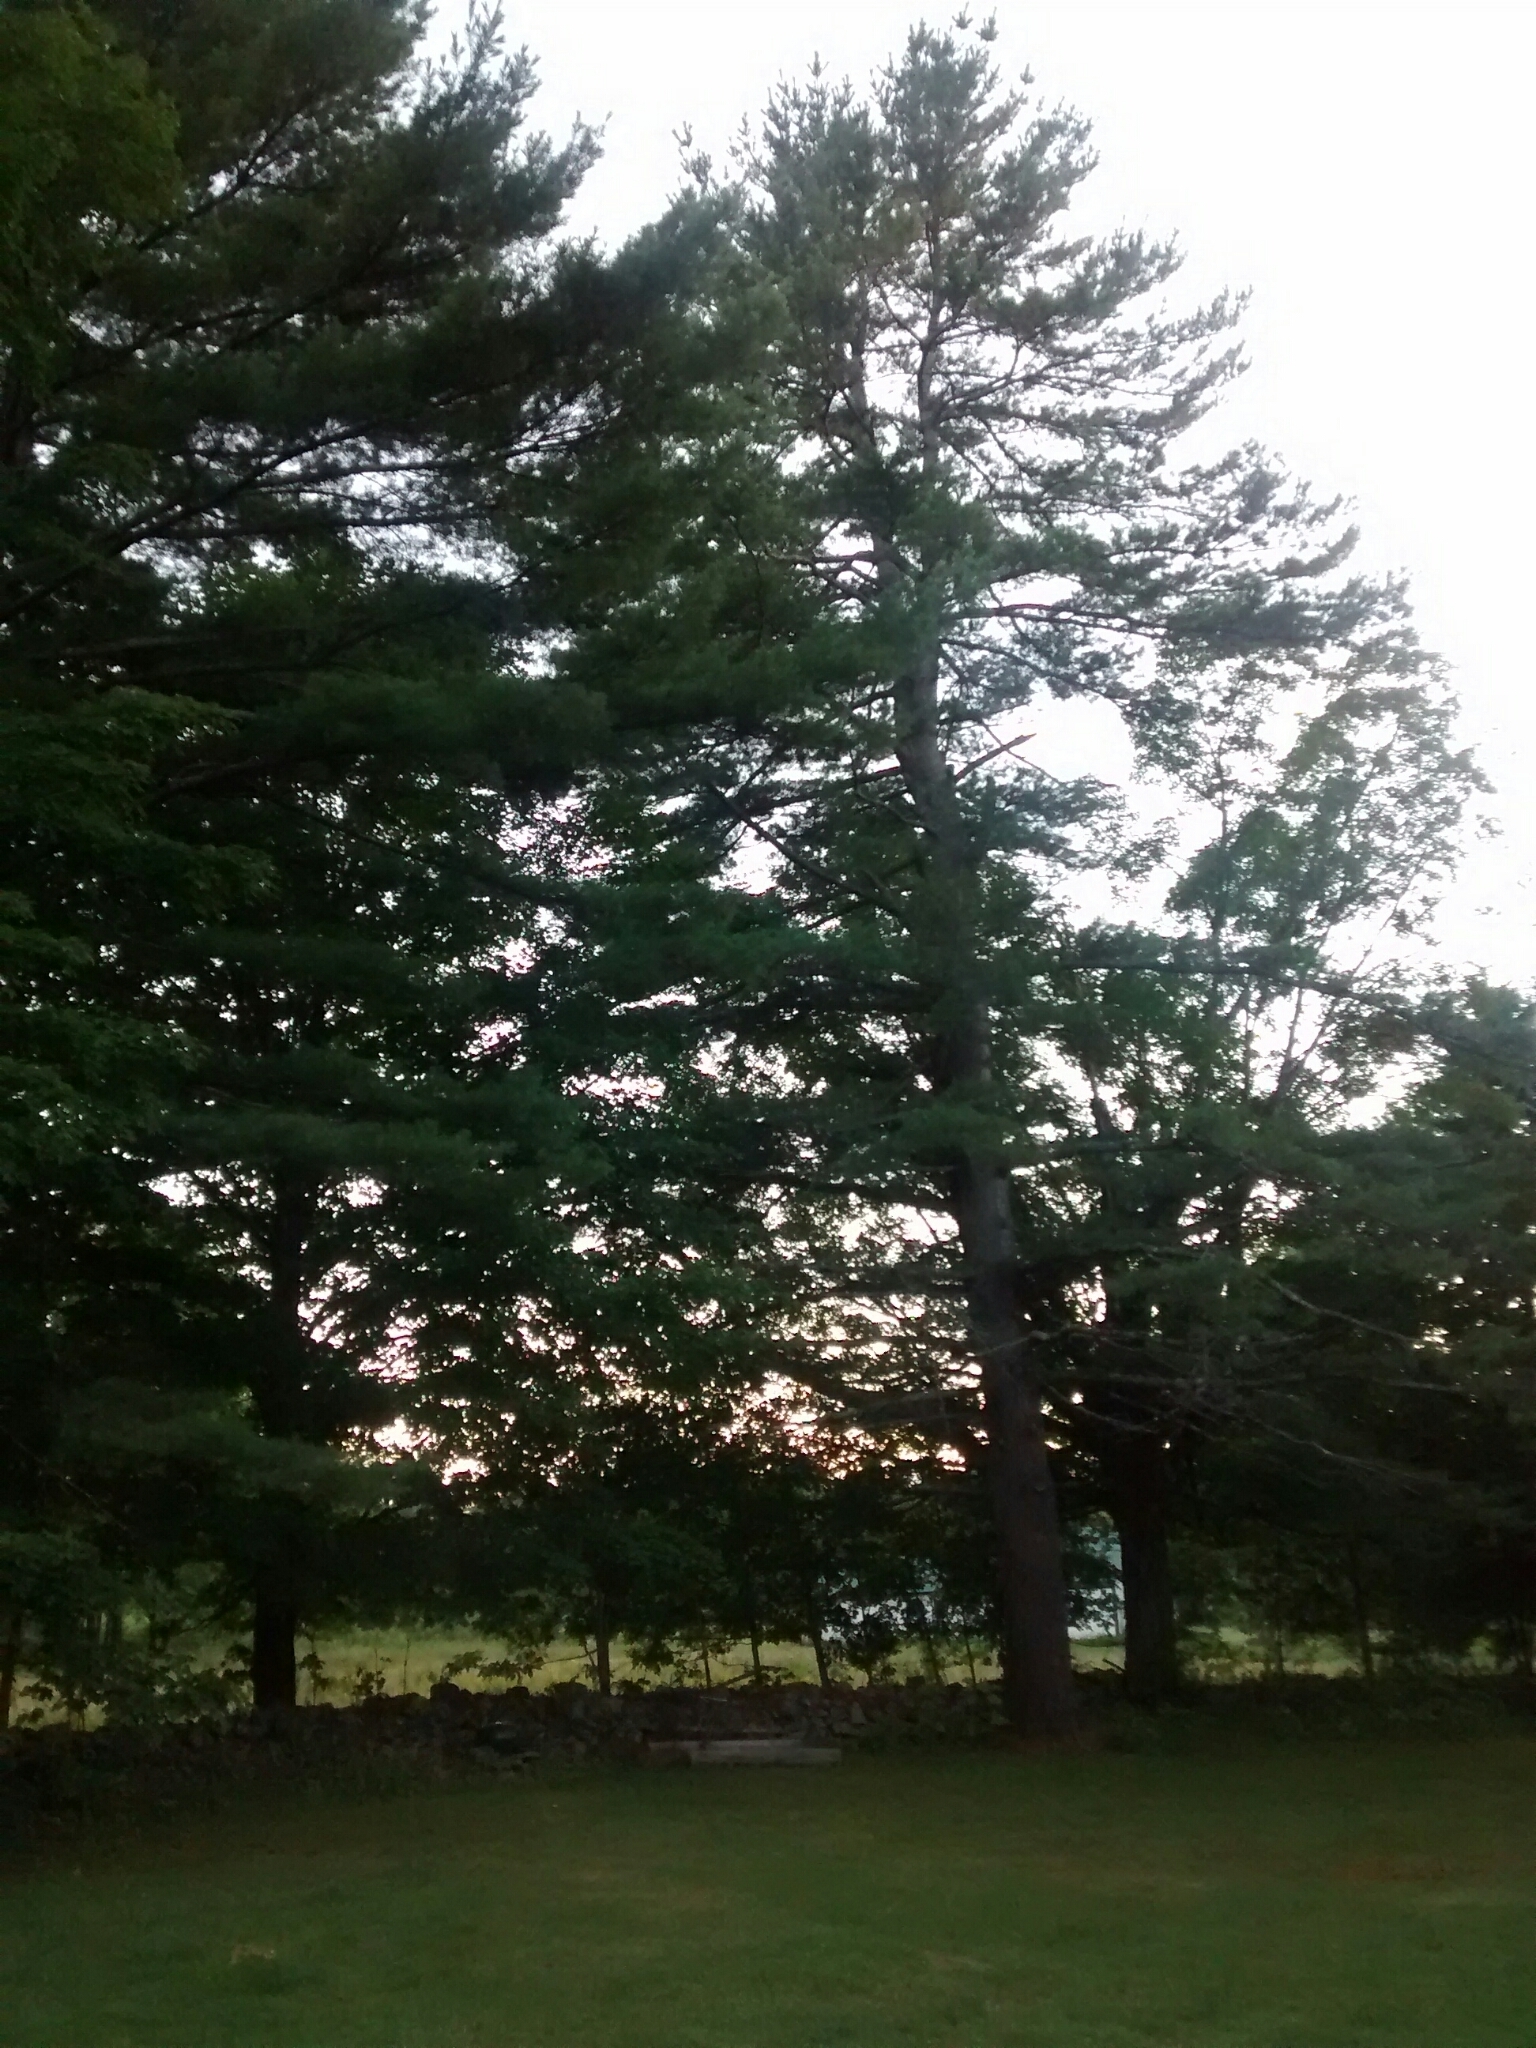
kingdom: Plantae
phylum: Tracheophyta
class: Pinopsida
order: Pinales
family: Pinaceae
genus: Pinus
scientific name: Pinus strobus
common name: Weymouth pine
